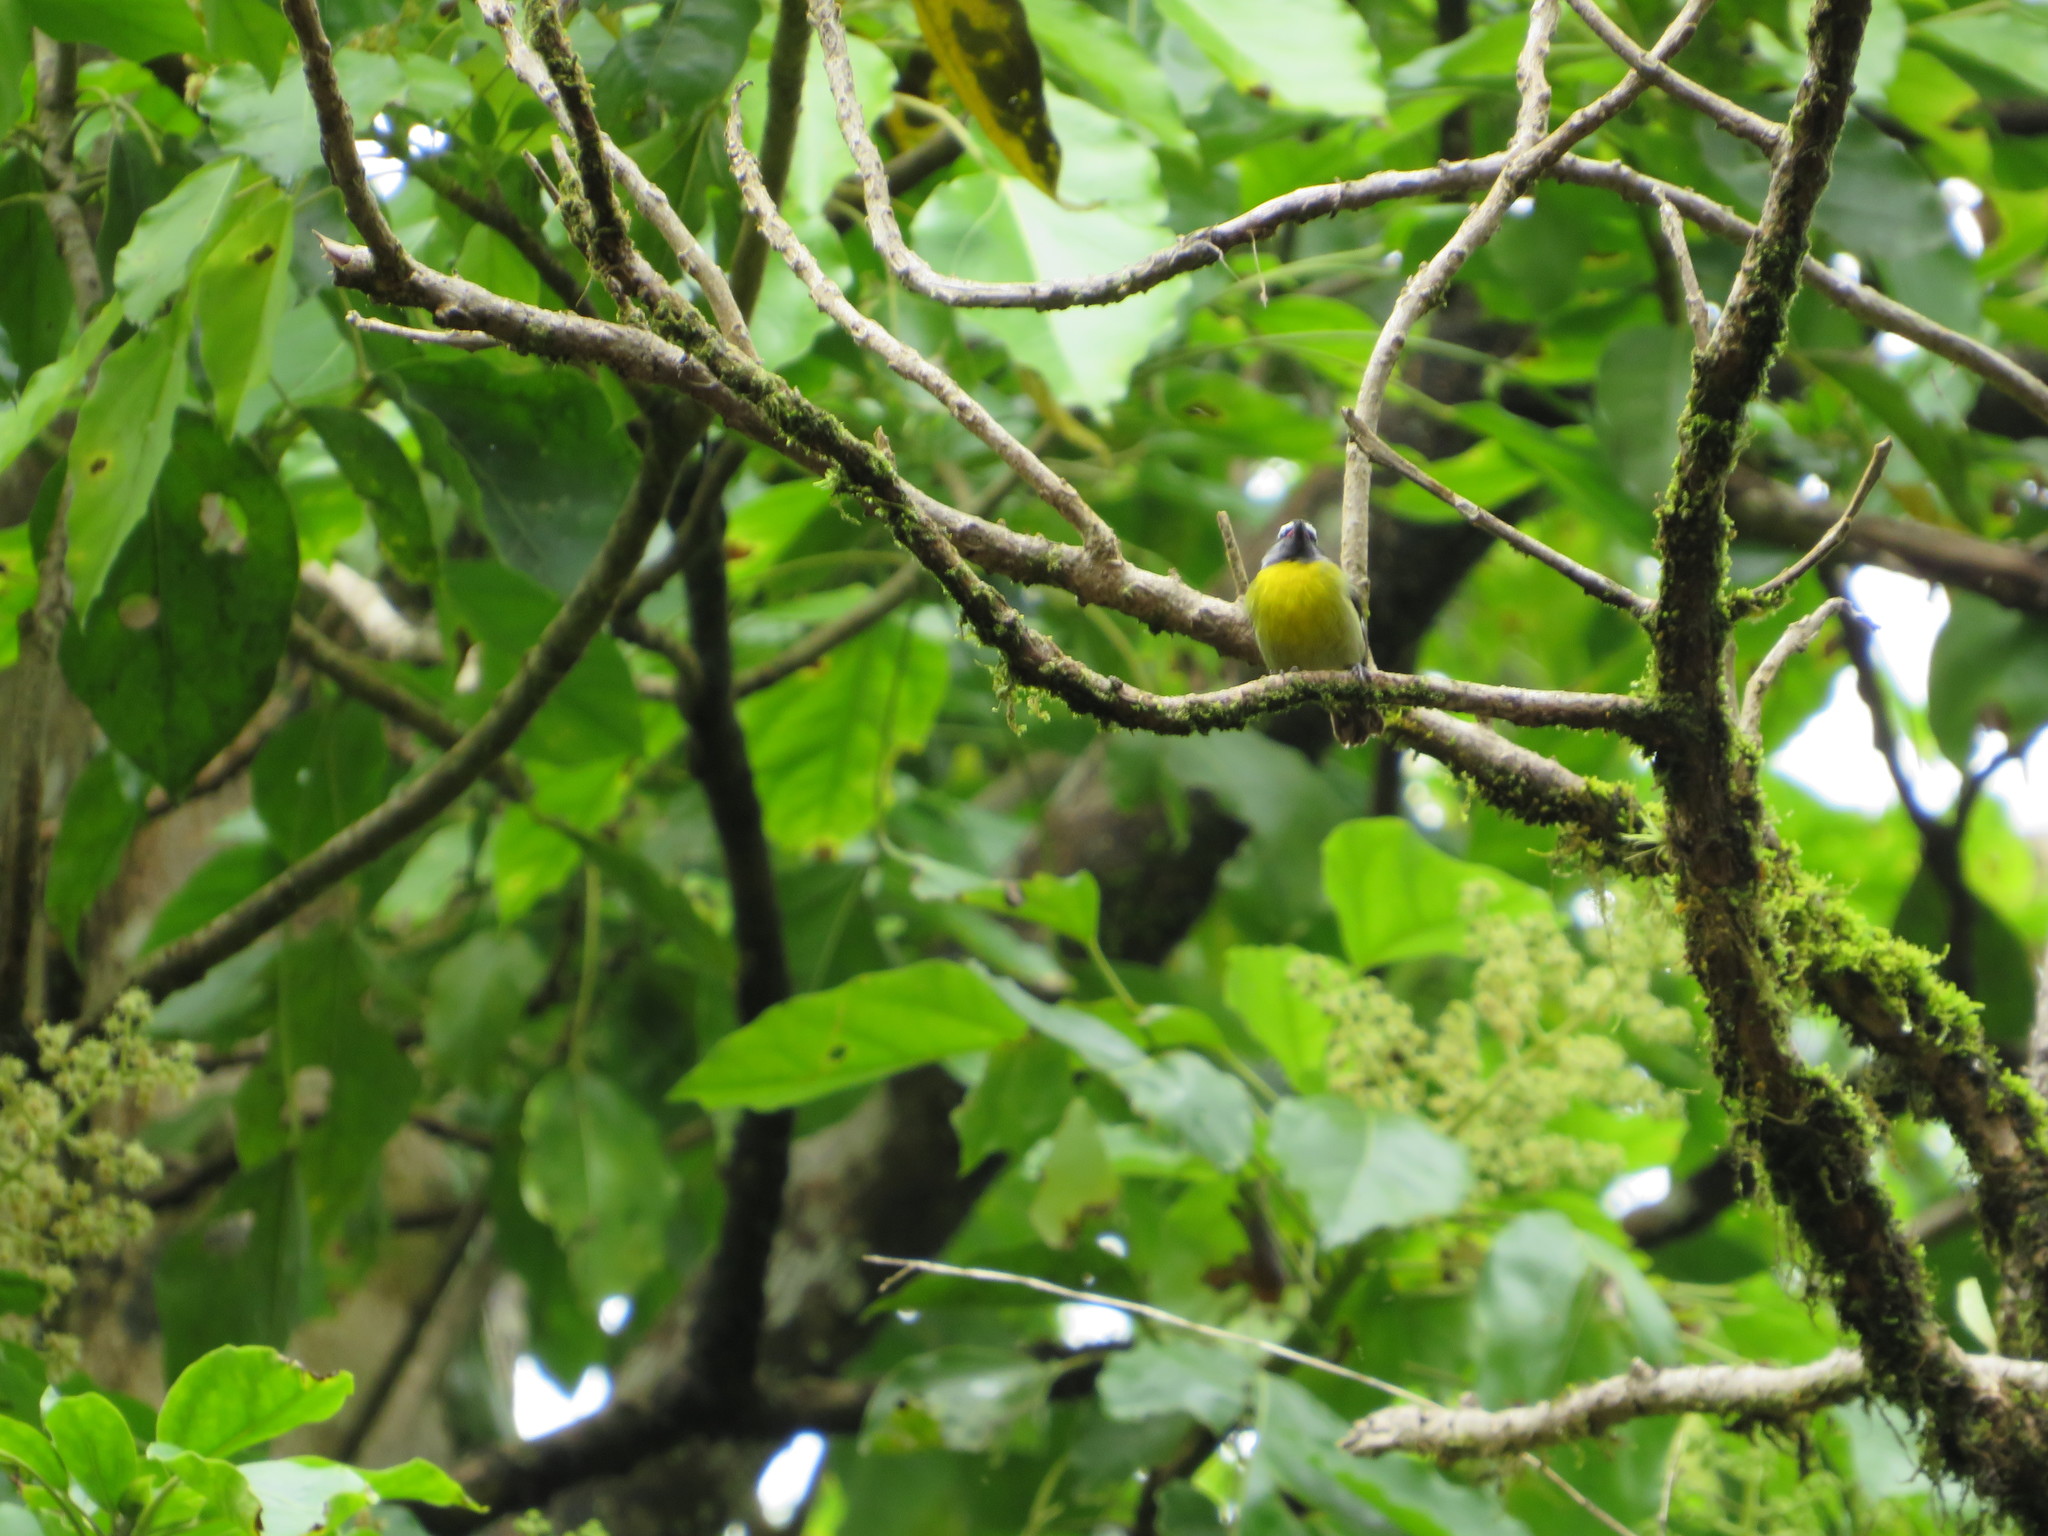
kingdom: Animalia
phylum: Chordata
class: Aves
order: Passeriformes
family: Thraupidae
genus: Coereba
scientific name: Coereba flaveola
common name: Bananaquit
